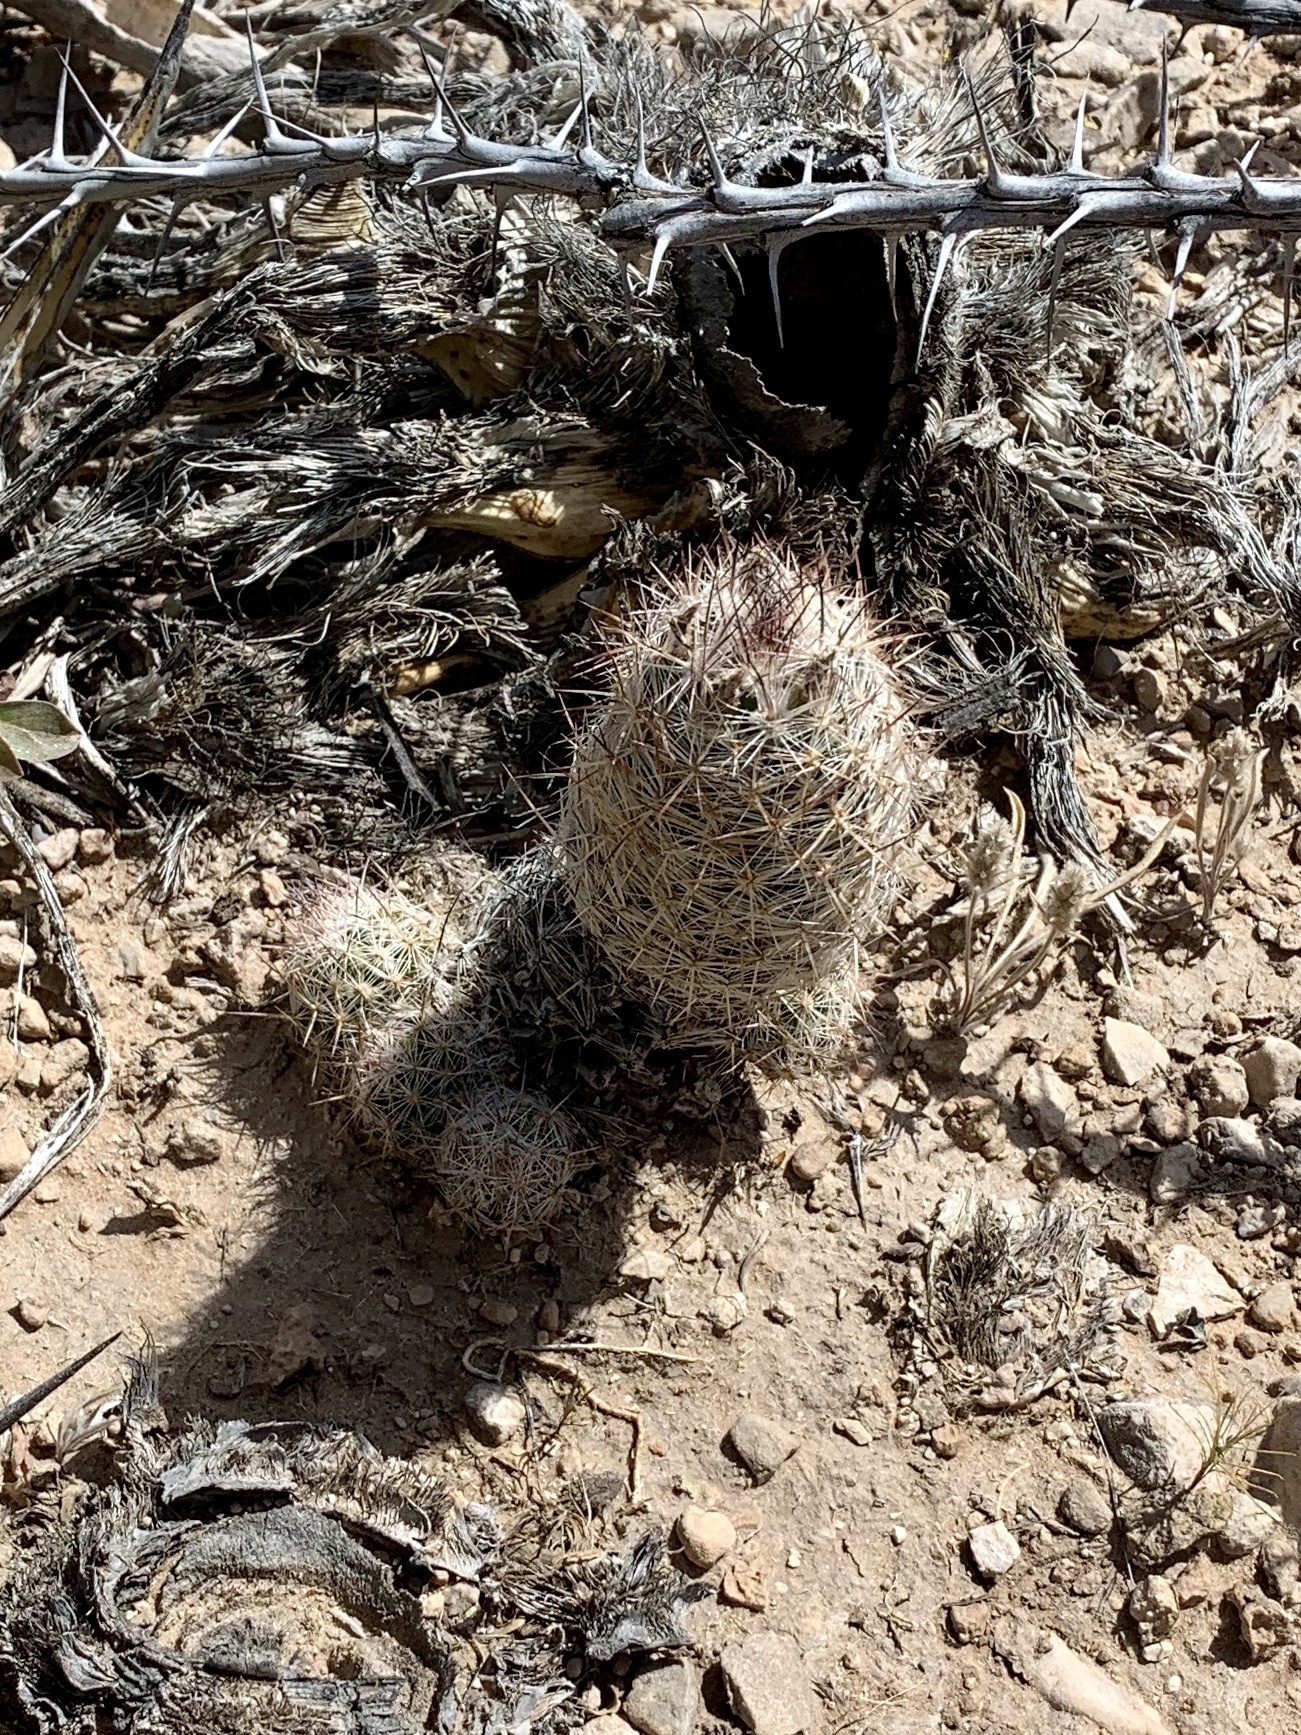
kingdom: Plantae
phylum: Tracheophyta
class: Magnoliopsida
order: Caryophyllales
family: Cactaceae
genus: Pelecyphora
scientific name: Pelecyphora tuberculosa
